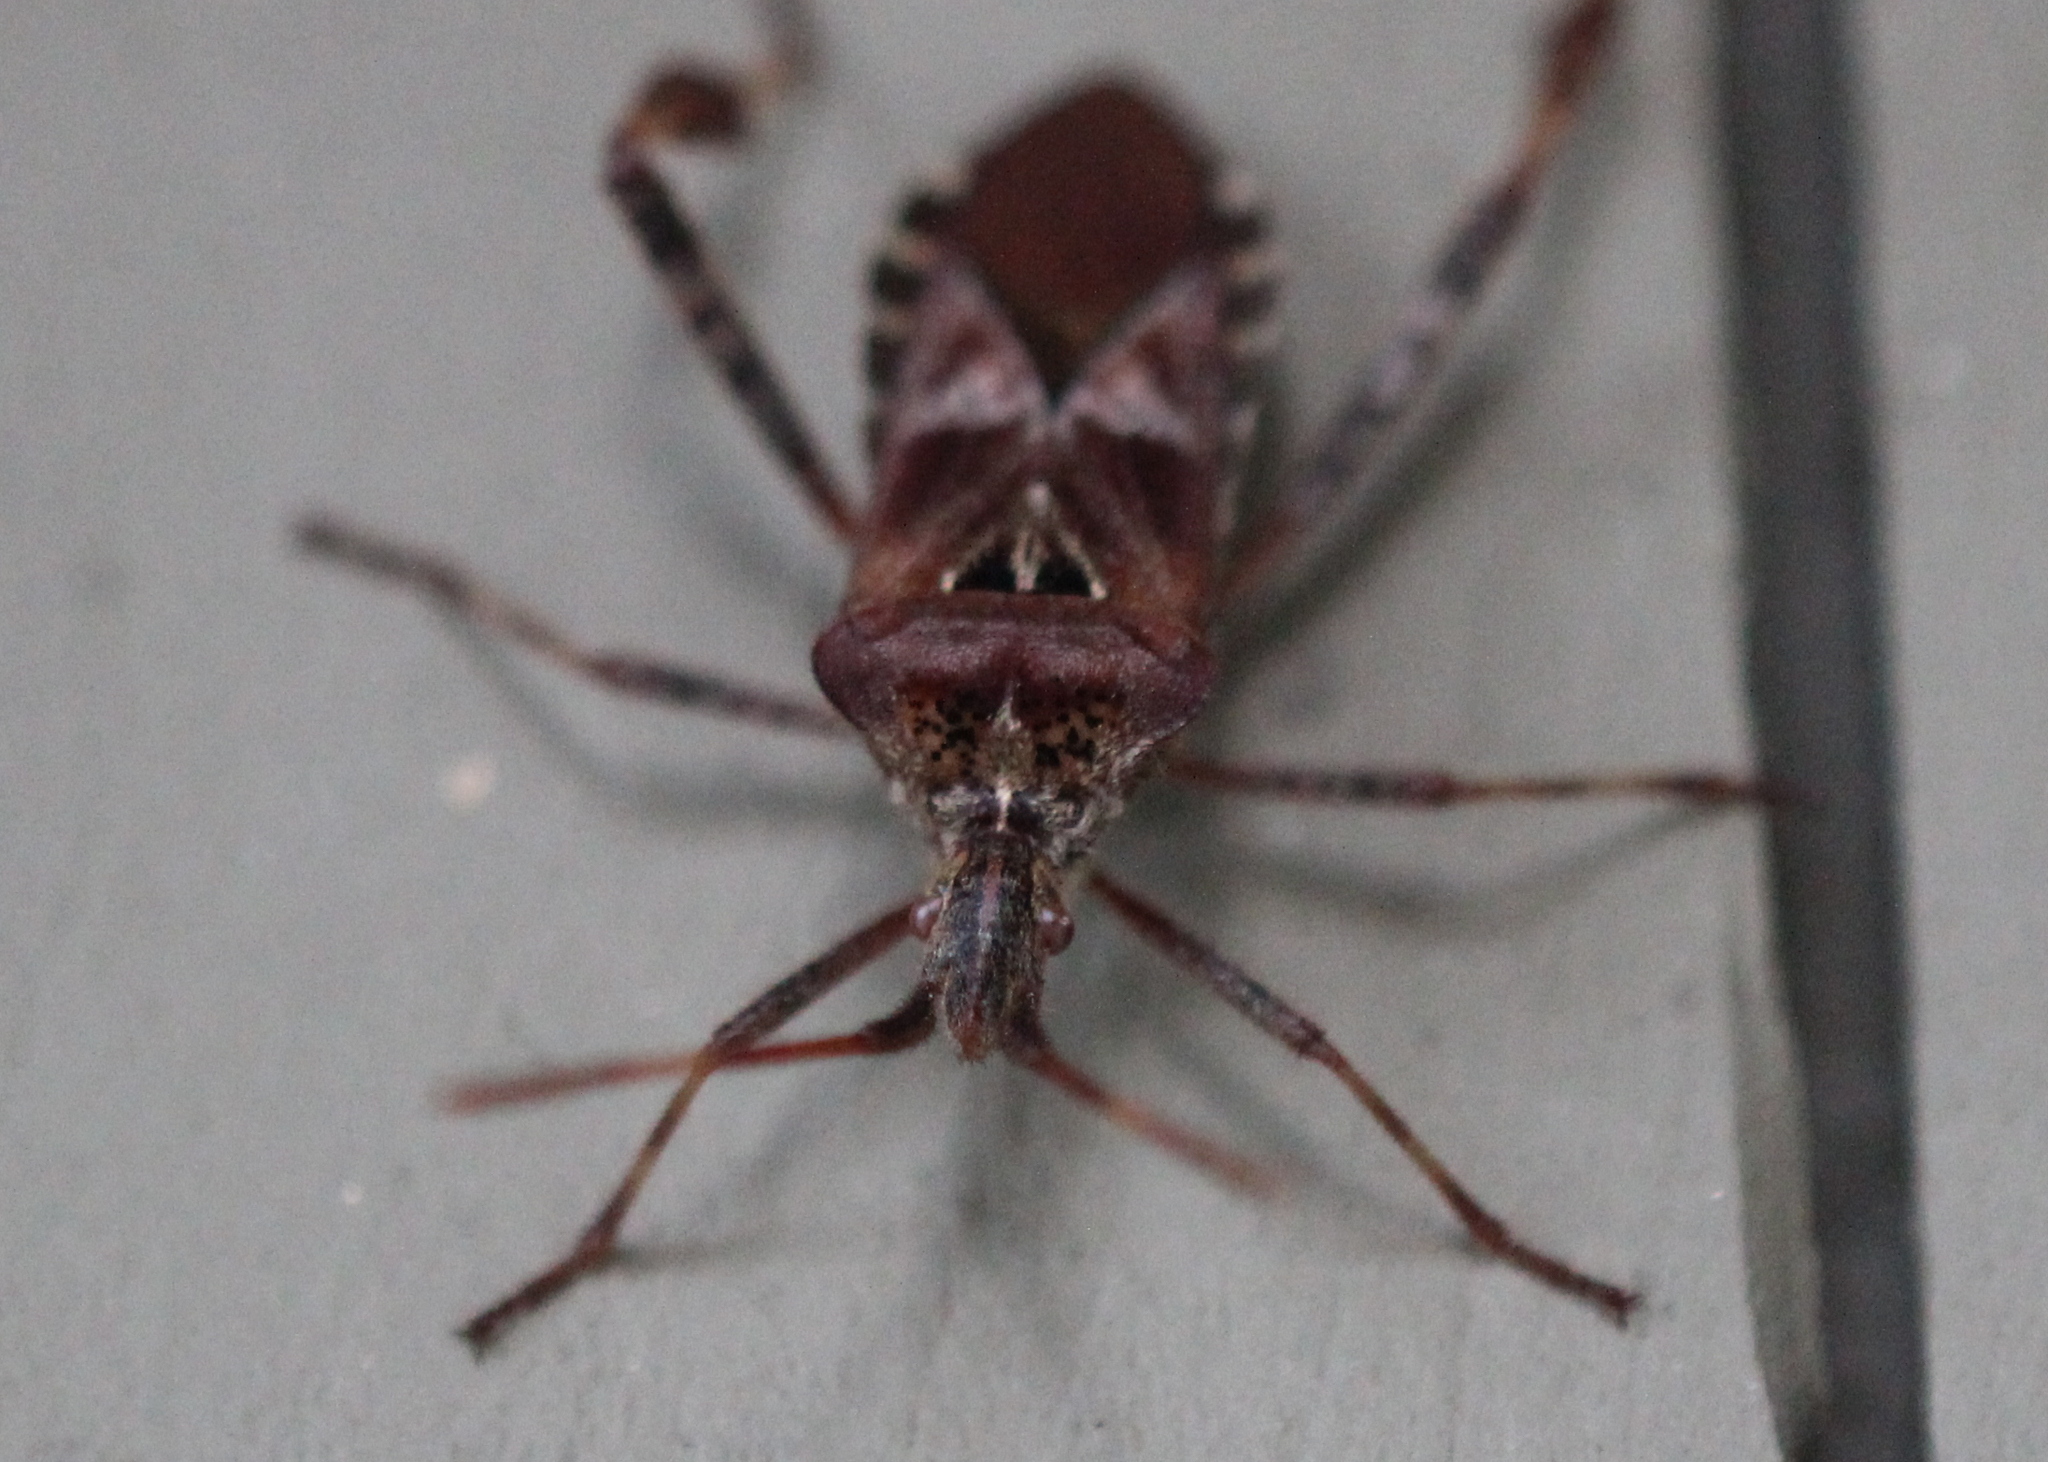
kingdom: Animalia
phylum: Arthropoda
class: Insecta
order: Hemiptera
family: Coreidae
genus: Leptoglossus
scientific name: Leptoglossus occidentalis
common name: Western conifer-seed bug
